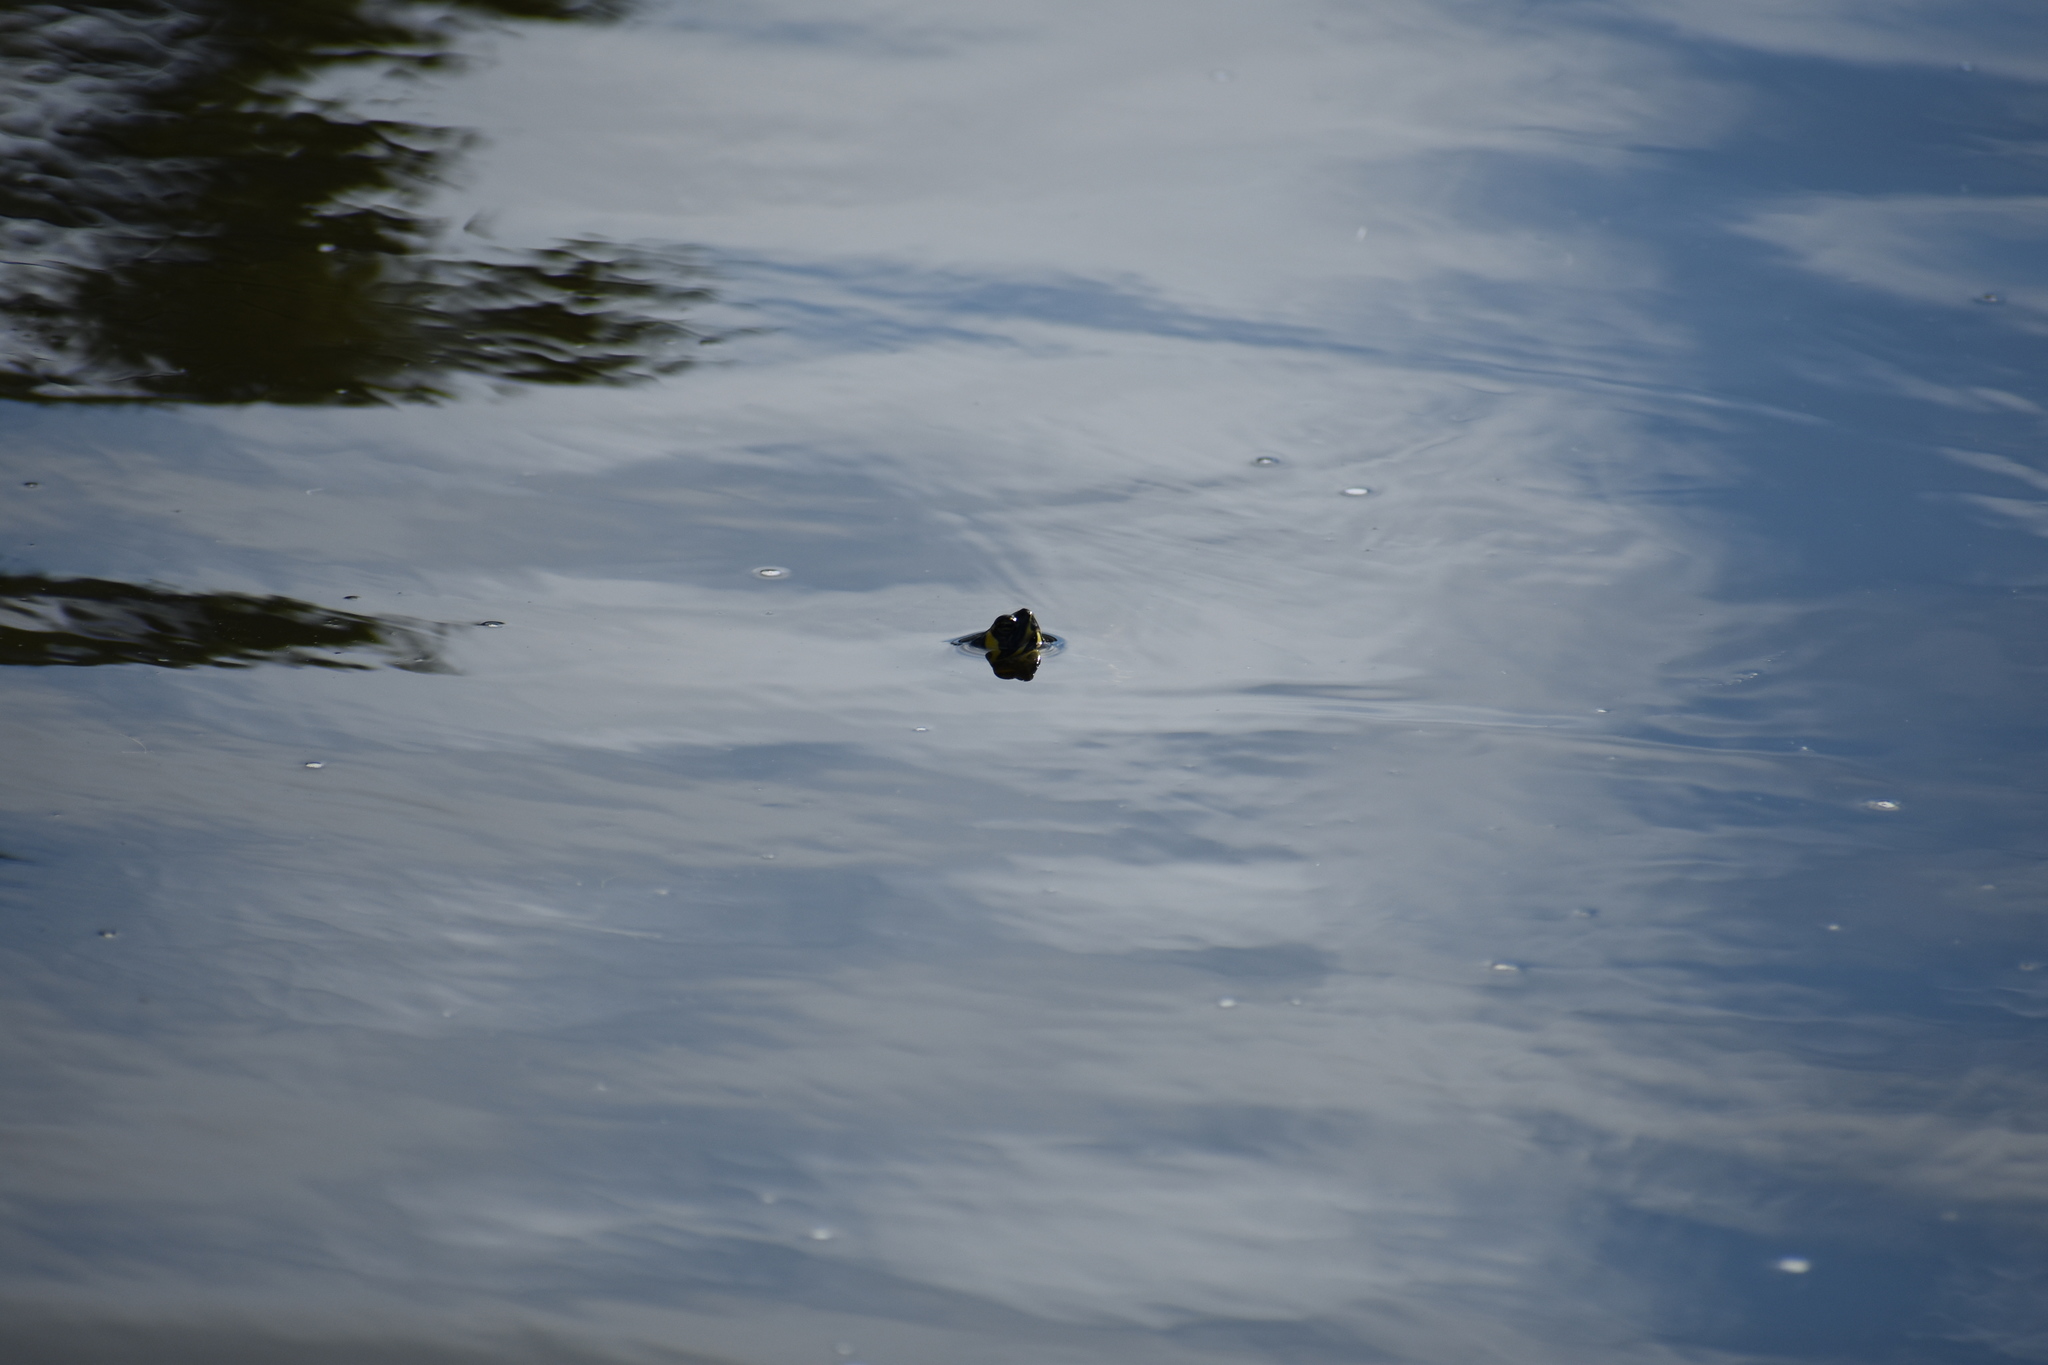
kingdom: Animalia
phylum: Chordata
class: Testudines
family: Emydidae
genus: Trachemys
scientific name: Trachemys scripta
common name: Slider
